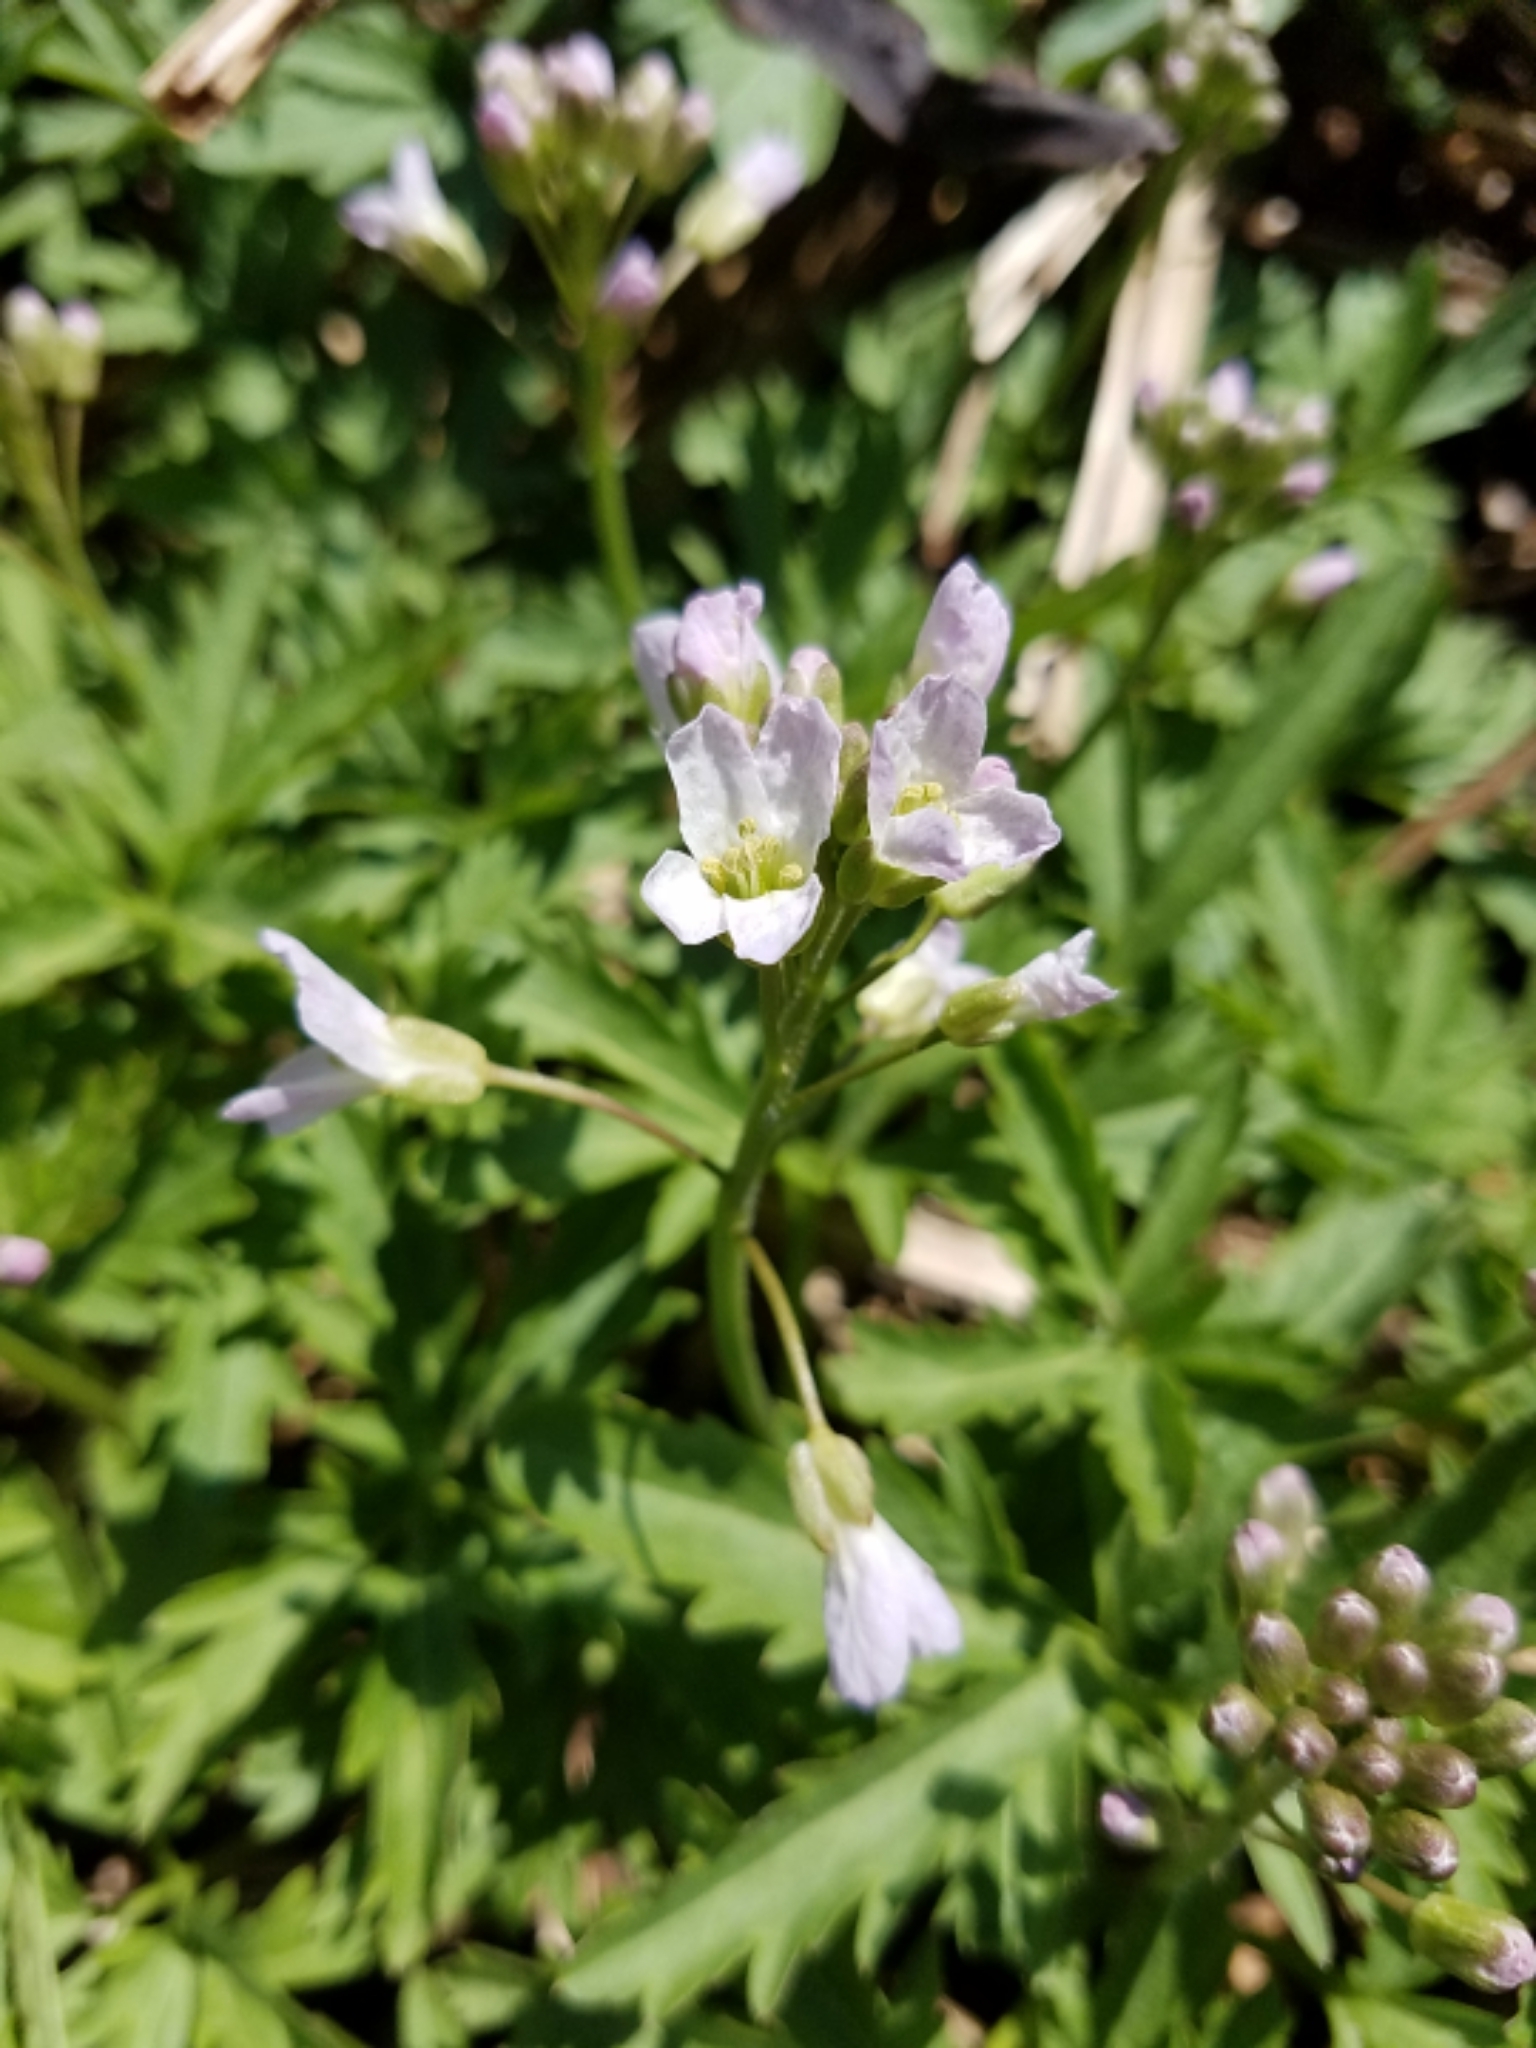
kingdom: Plantae
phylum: Tracheophyta
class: Magnoliopsida
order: Brassicales
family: Brassicaceae
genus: Cardamine
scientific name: Cardamine concatenata
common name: Cut-leaf toothcup
